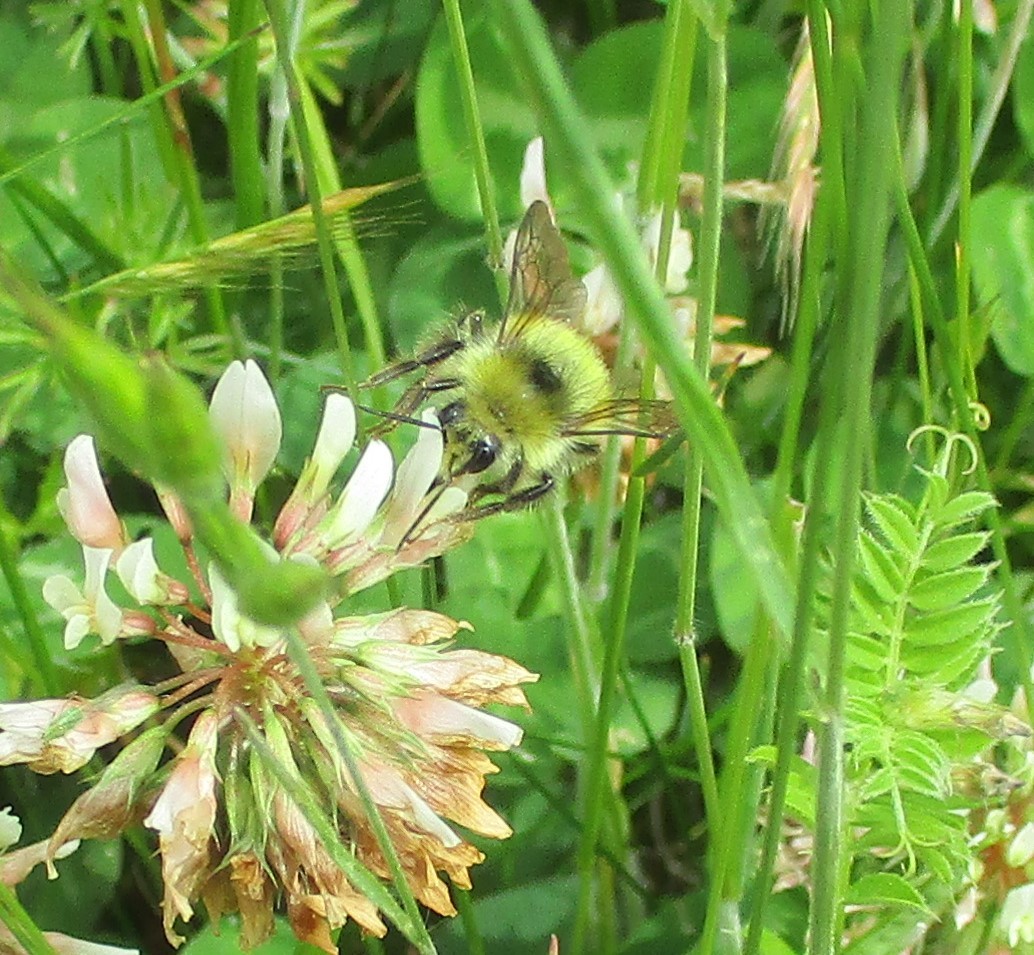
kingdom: Animalia
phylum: Arthropoda
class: Insecta
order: Hymenoptera
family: Apidae
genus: Bombus
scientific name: Bombus flavifrons
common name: Yellow head bumble bee
